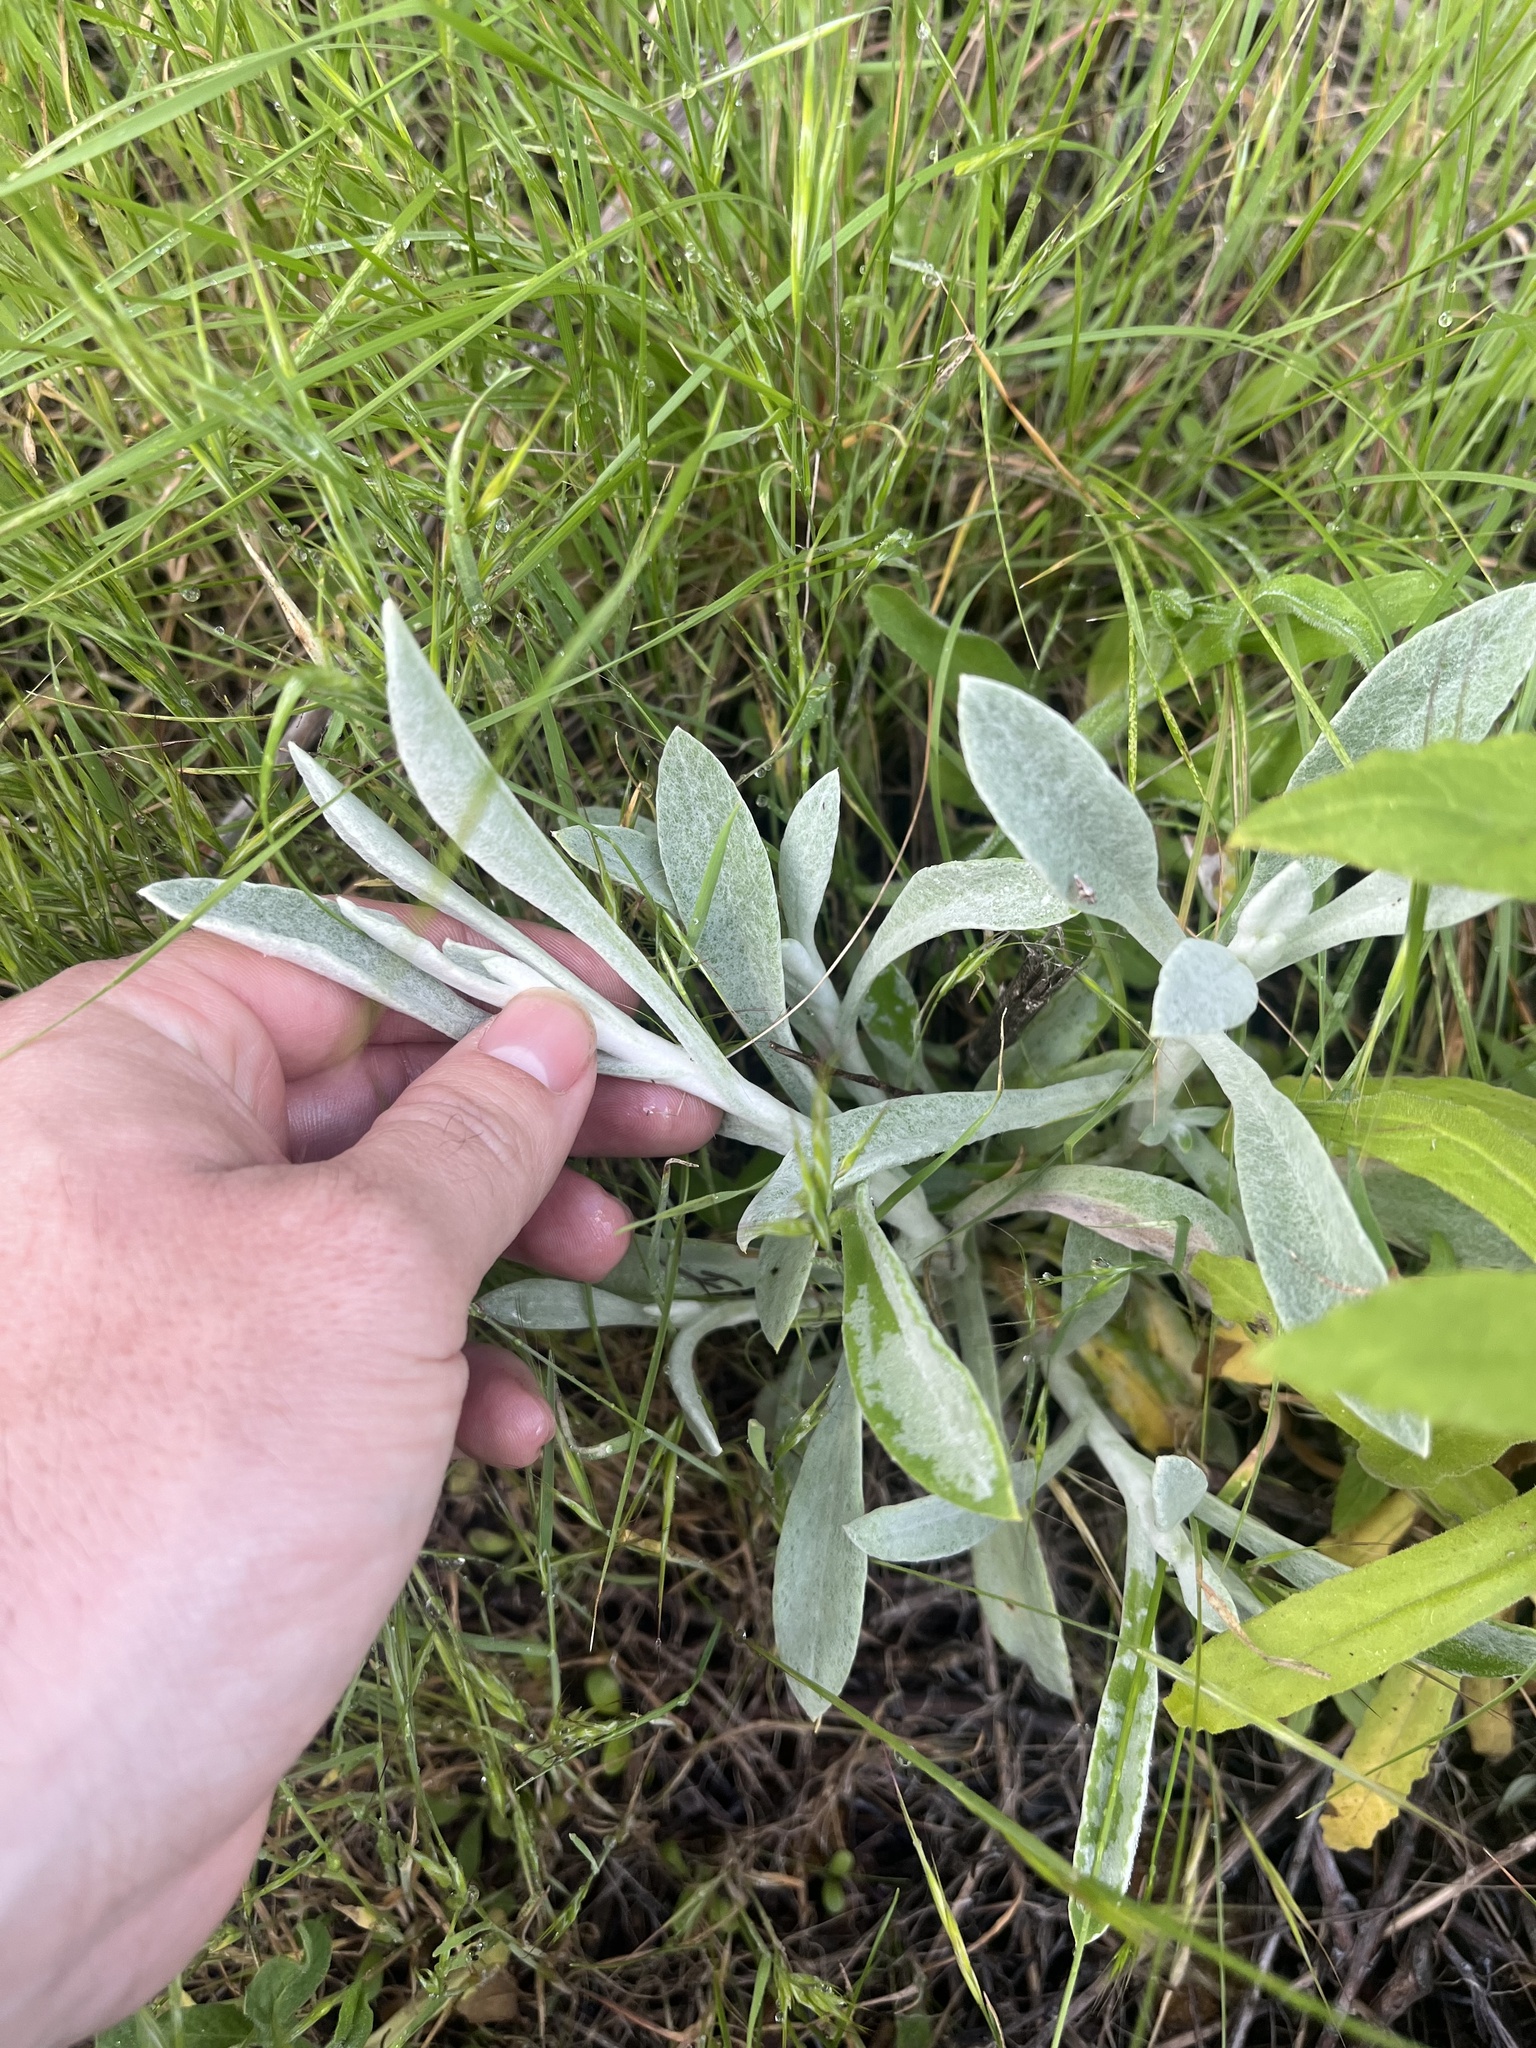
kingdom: Plantae
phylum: Tracheophyta
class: Magnoliopsida
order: Asterales
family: Asteraceae
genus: Pseudognaphalium
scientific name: Pseudognaphalium microcephalum
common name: San diego rabbit-tobacco
